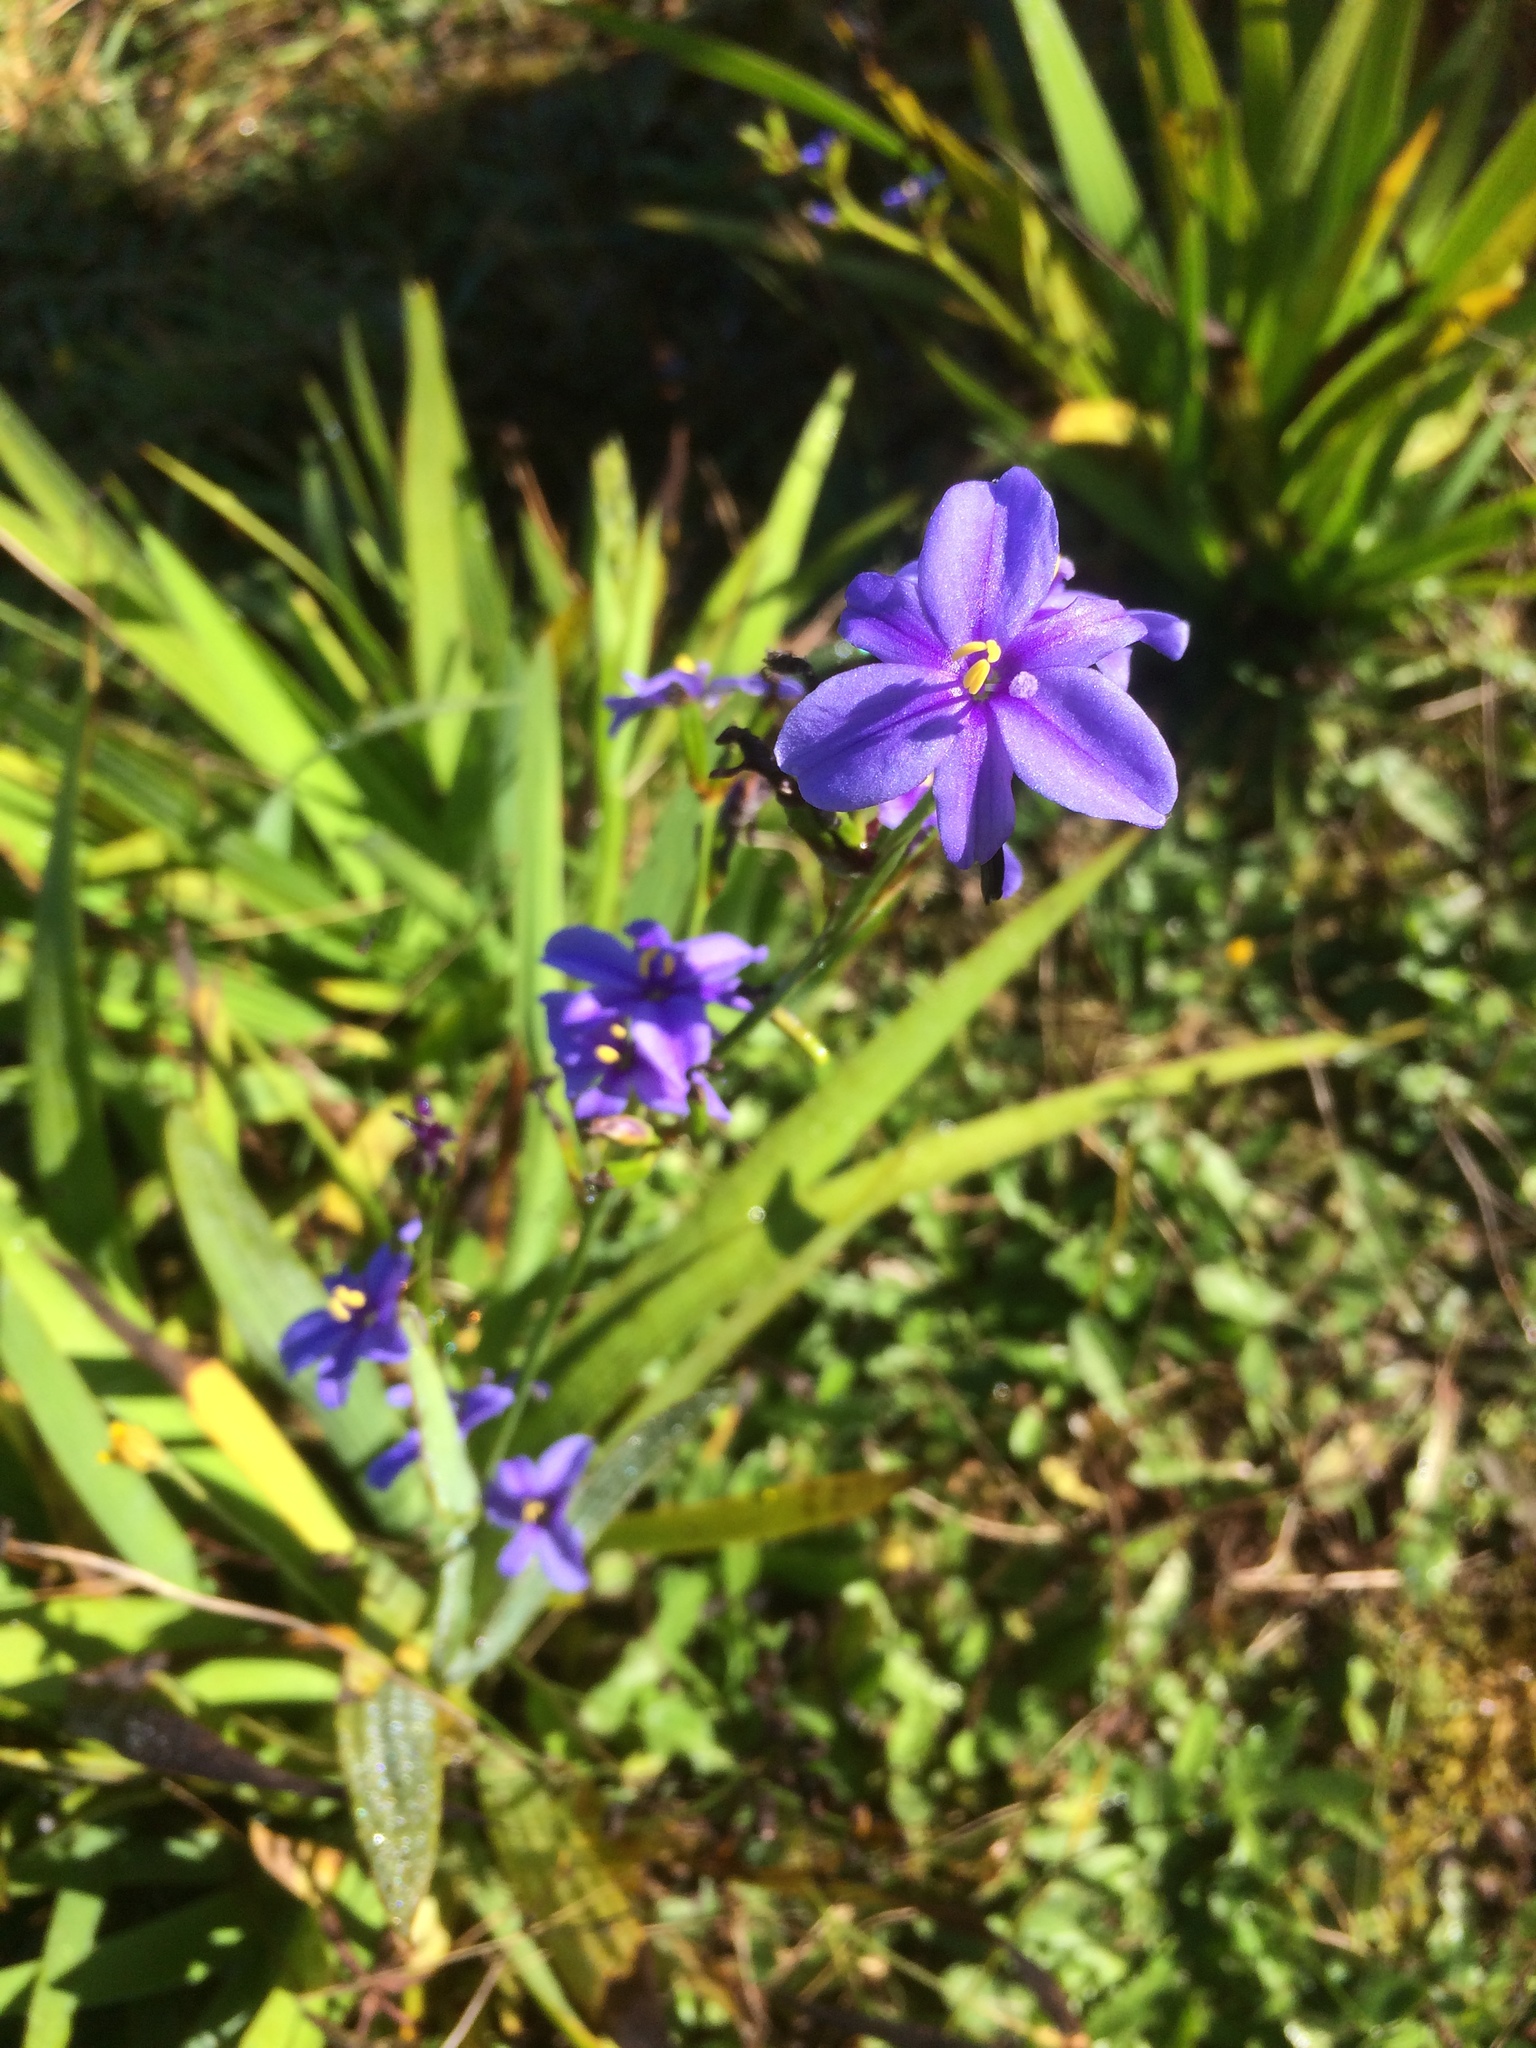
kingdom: Plantae
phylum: Tracheophyta
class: Liliopsida
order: Asparagales
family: Iridaceae
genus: Aristea
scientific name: Aristea ecklonii
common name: Blue corn-lily
